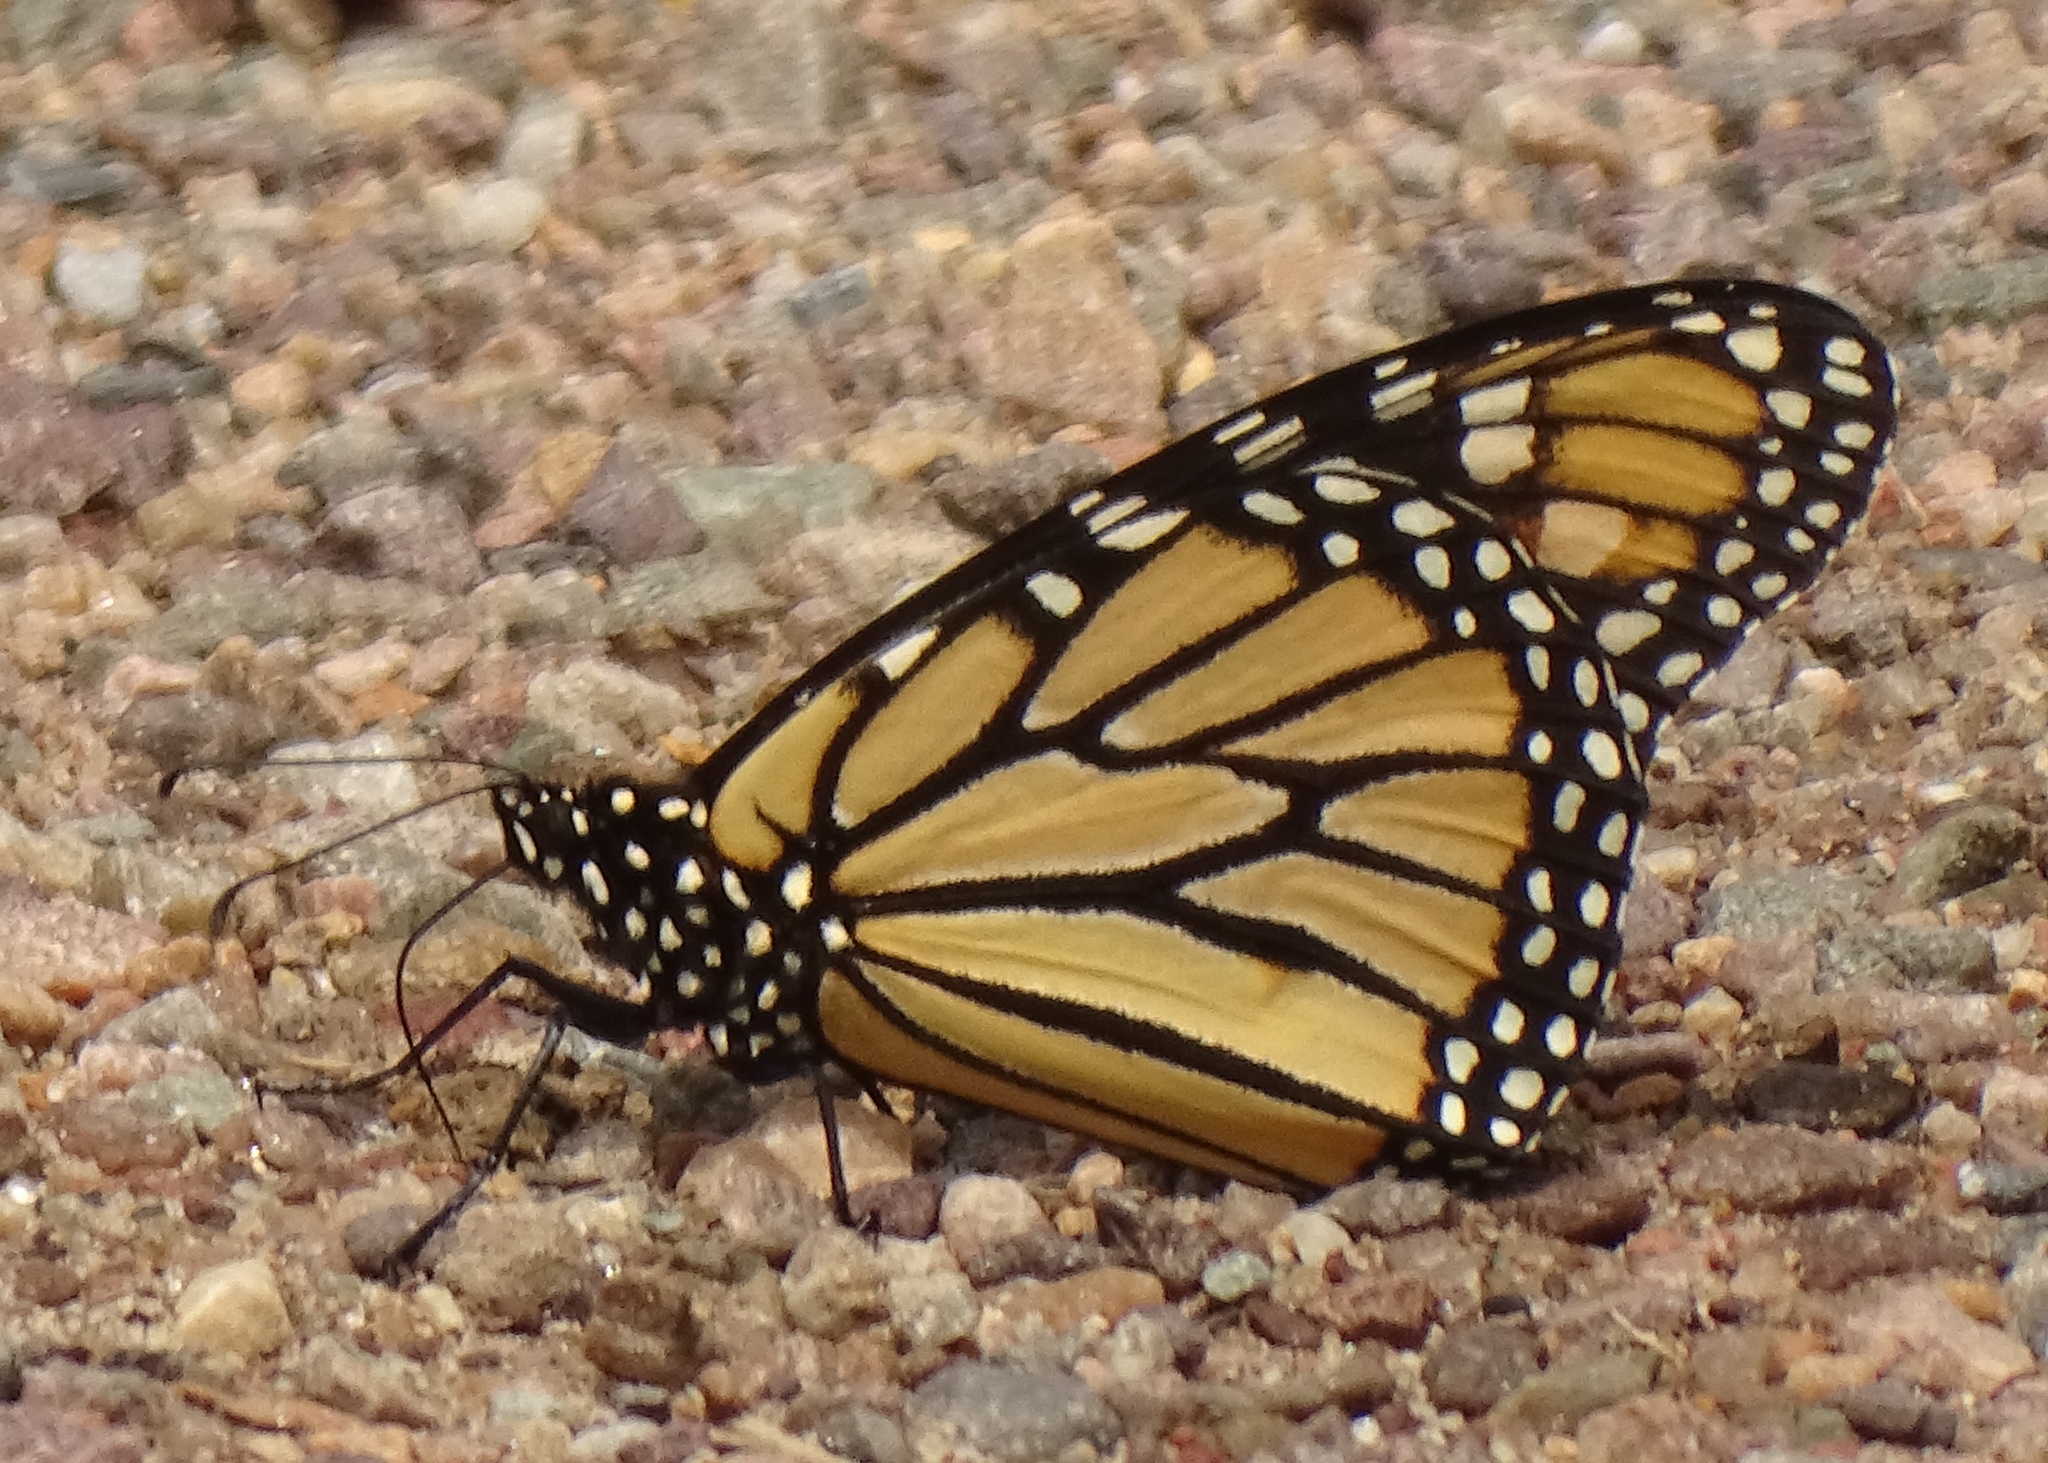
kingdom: Animalia
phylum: Arthropoda
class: Insecta
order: Lepidoptera
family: Nymphalidae
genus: Danaus
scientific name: Danaus plexippus
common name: Monarch
